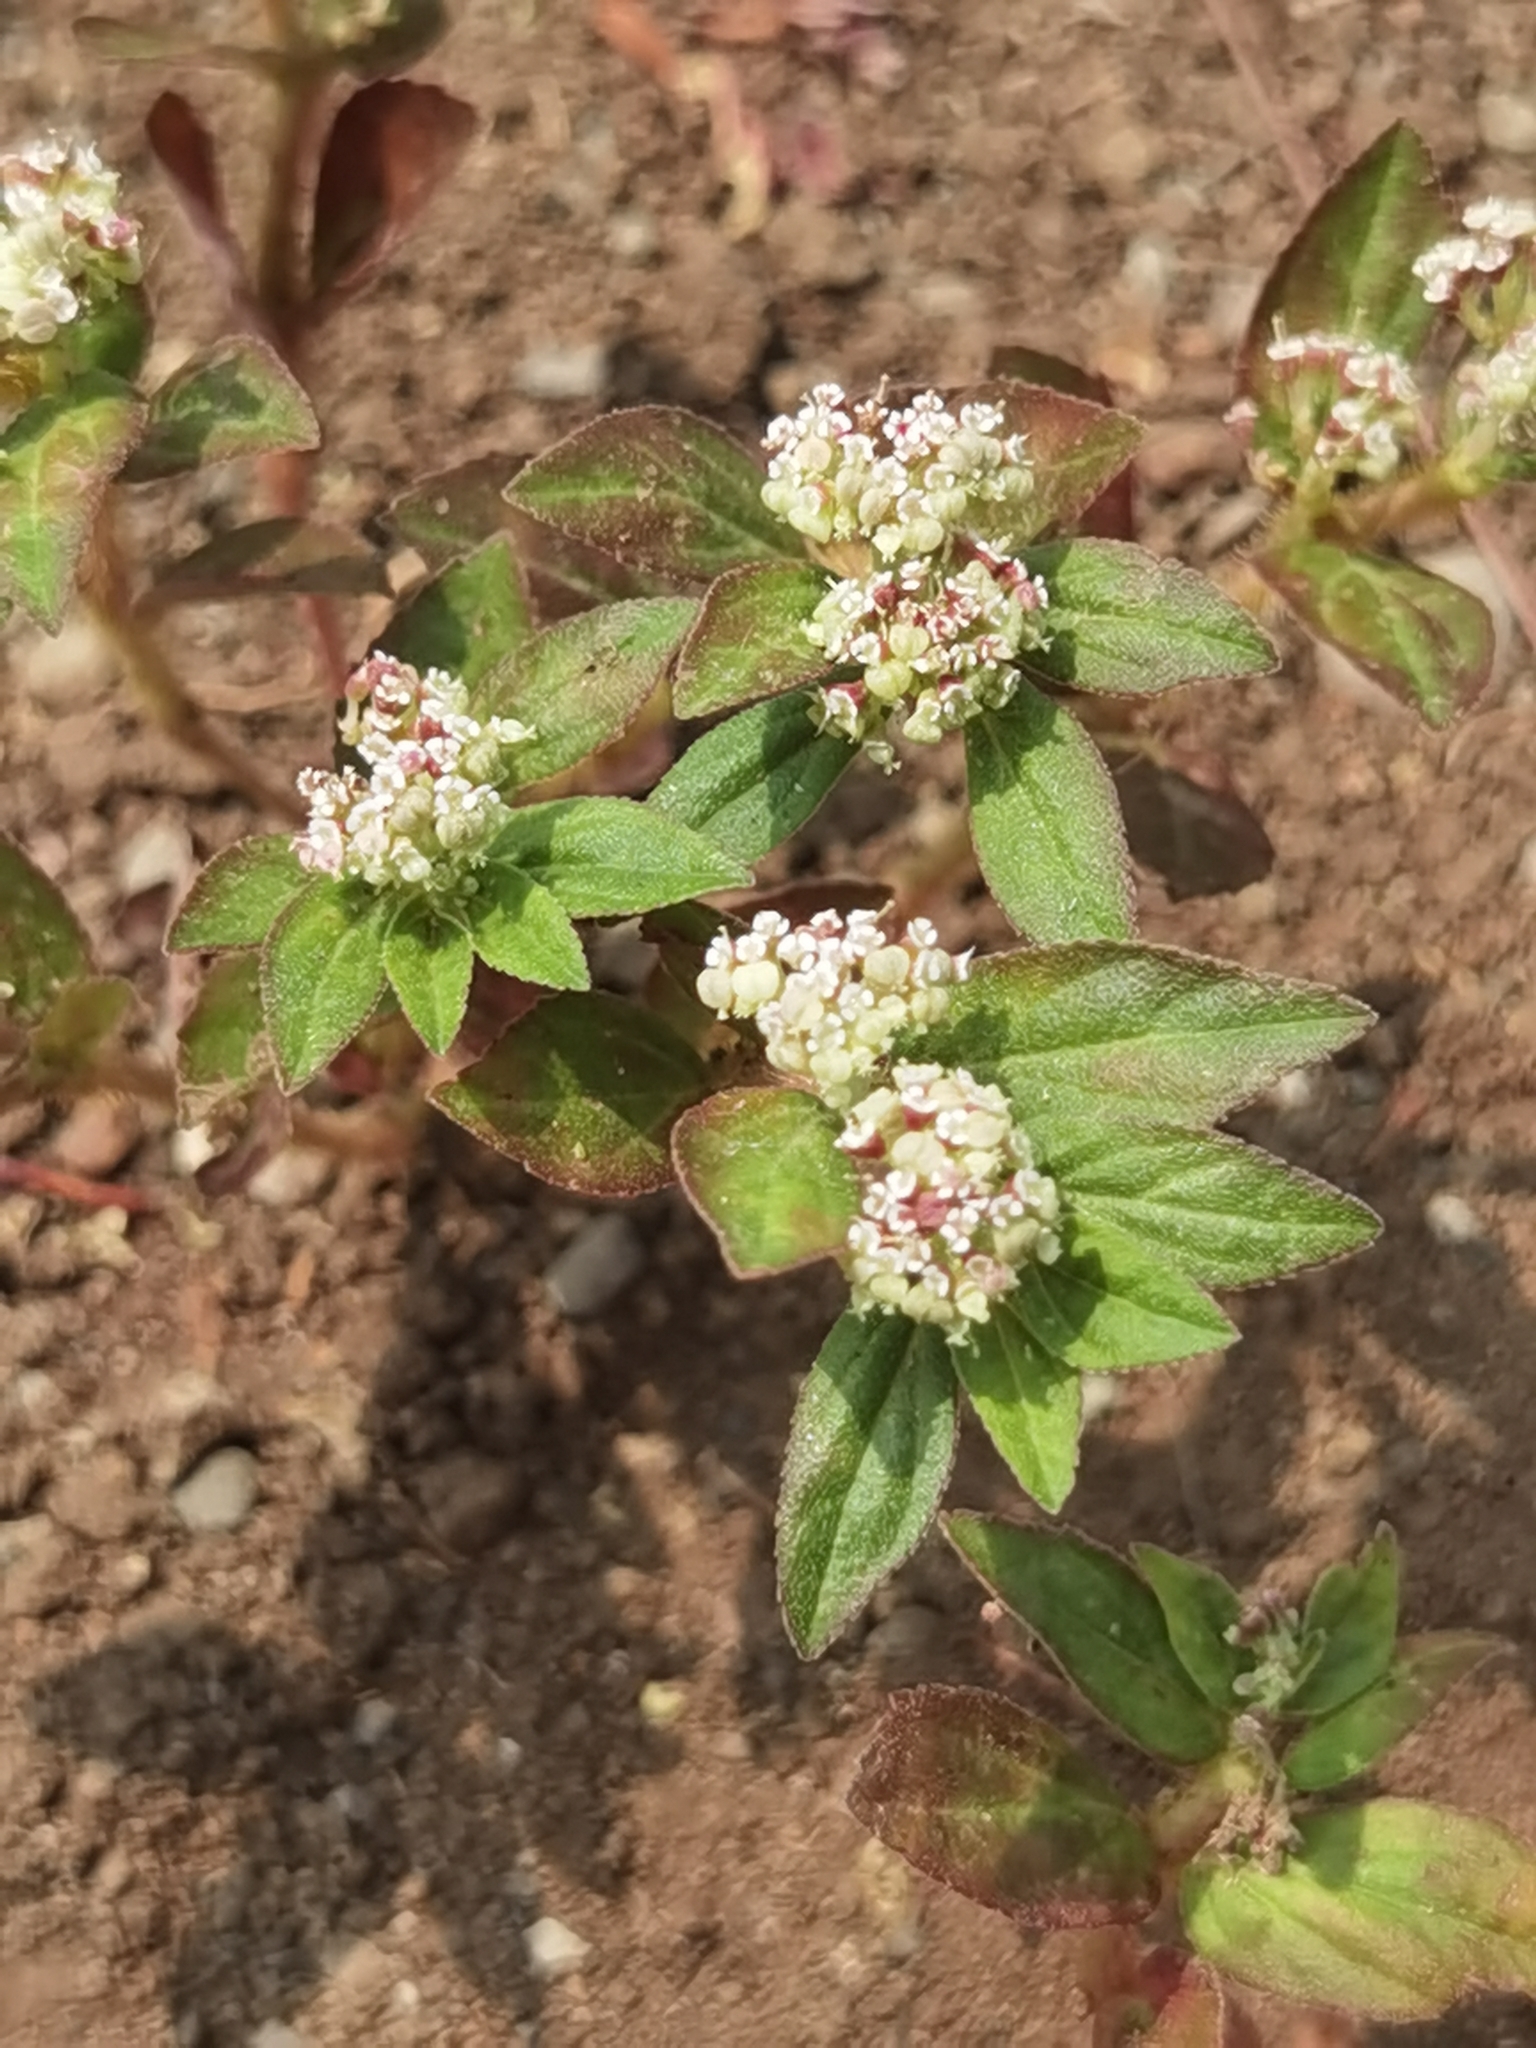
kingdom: Plantae
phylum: Tracheophyta
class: Magnoliopsida
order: Malpighiales
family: Euphorbiaceae
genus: Euphorbia
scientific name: Euphorbia hirta
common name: Pillpod sandmat
